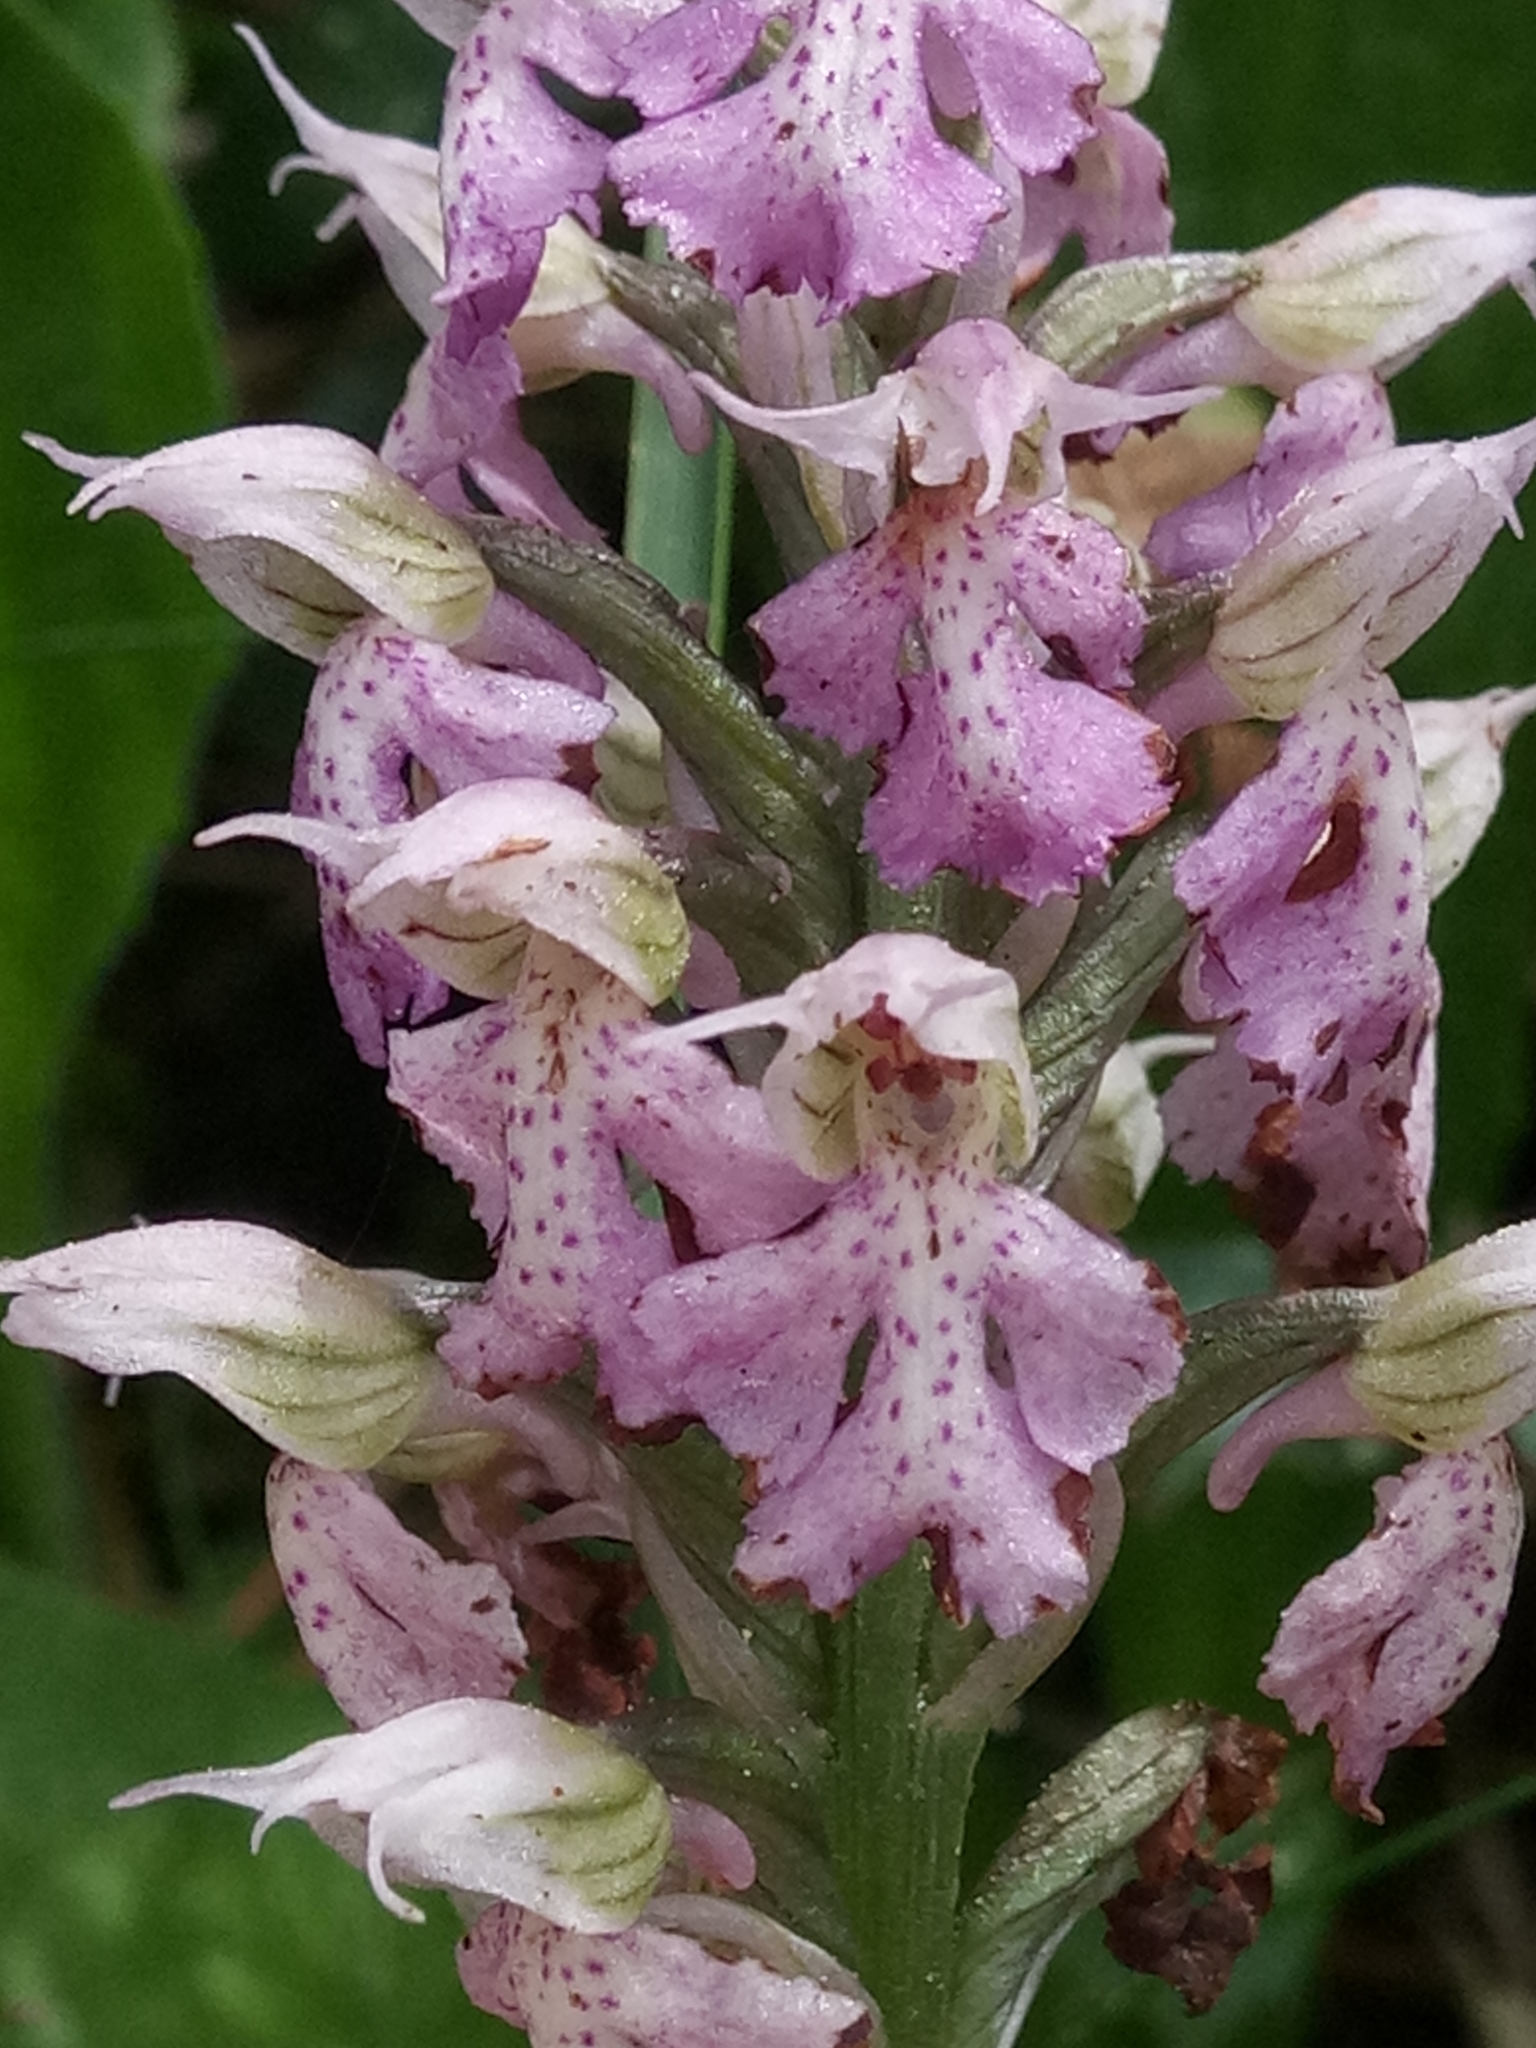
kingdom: Plantae
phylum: Tracheophyta
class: Liliopsida
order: Asparagales
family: Orchidaceae
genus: Neotinea
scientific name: Neotinea lactea
